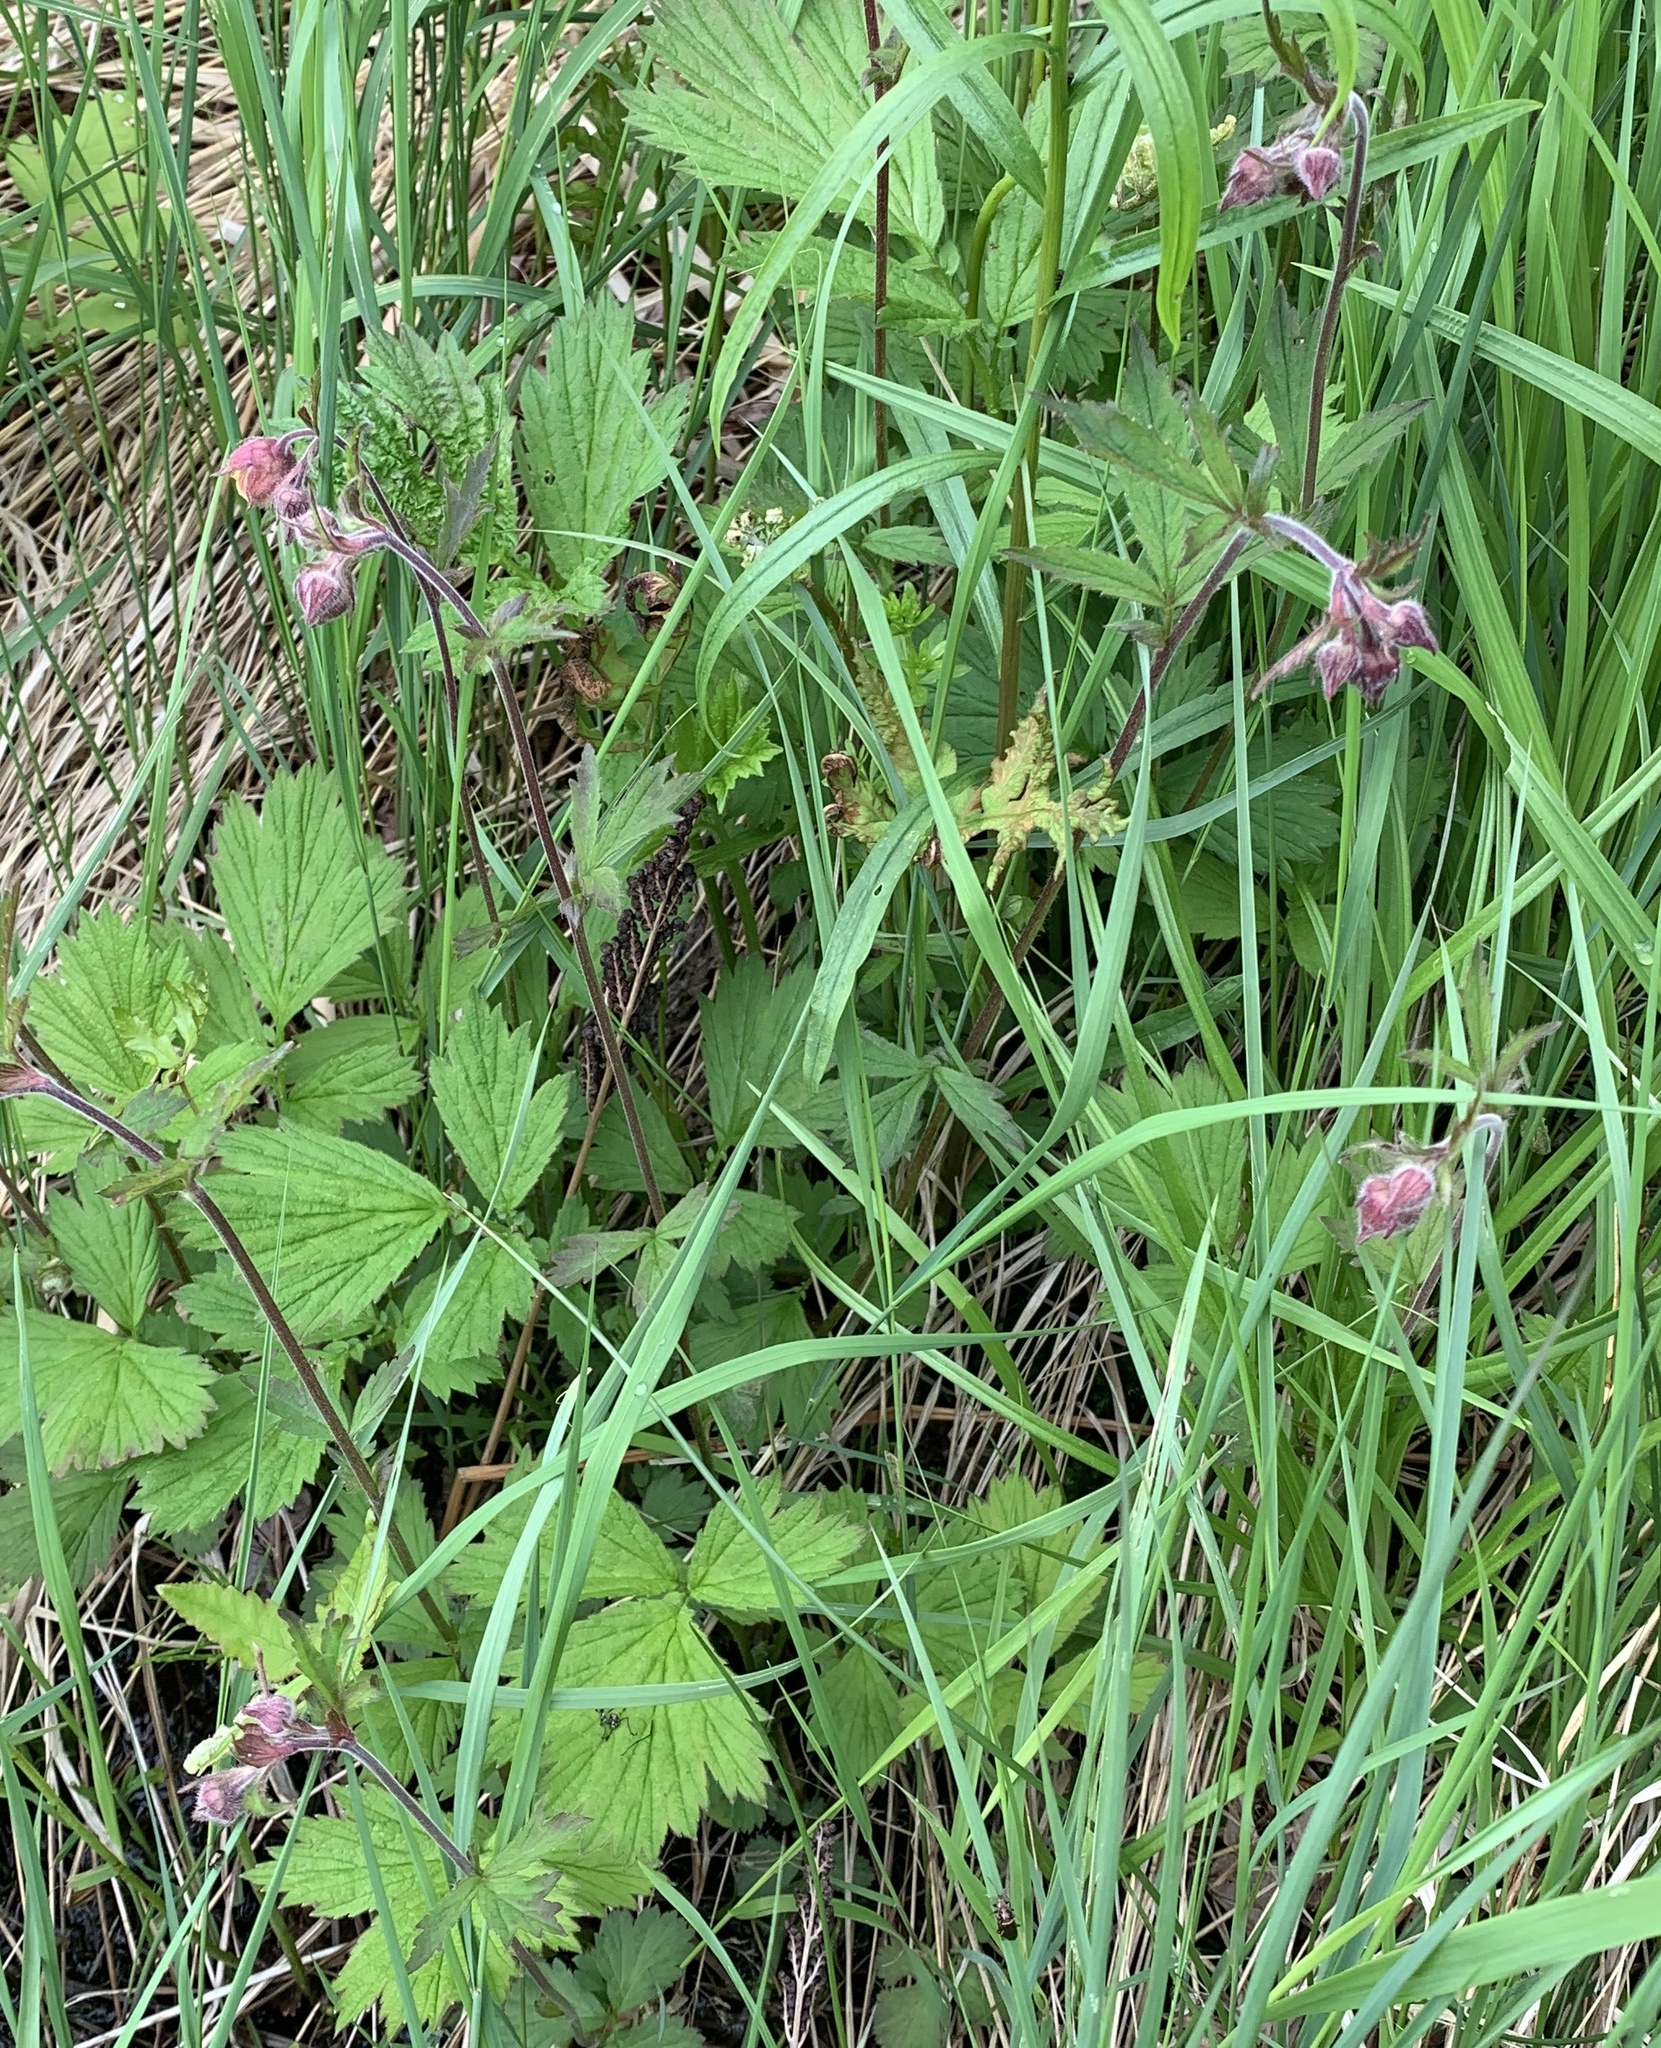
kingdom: Plantae
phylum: Tracheophyta
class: Magnoliopsida
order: Rosales
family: Rosaceae
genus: Geum
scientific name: Geum rivale
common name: Water avens
